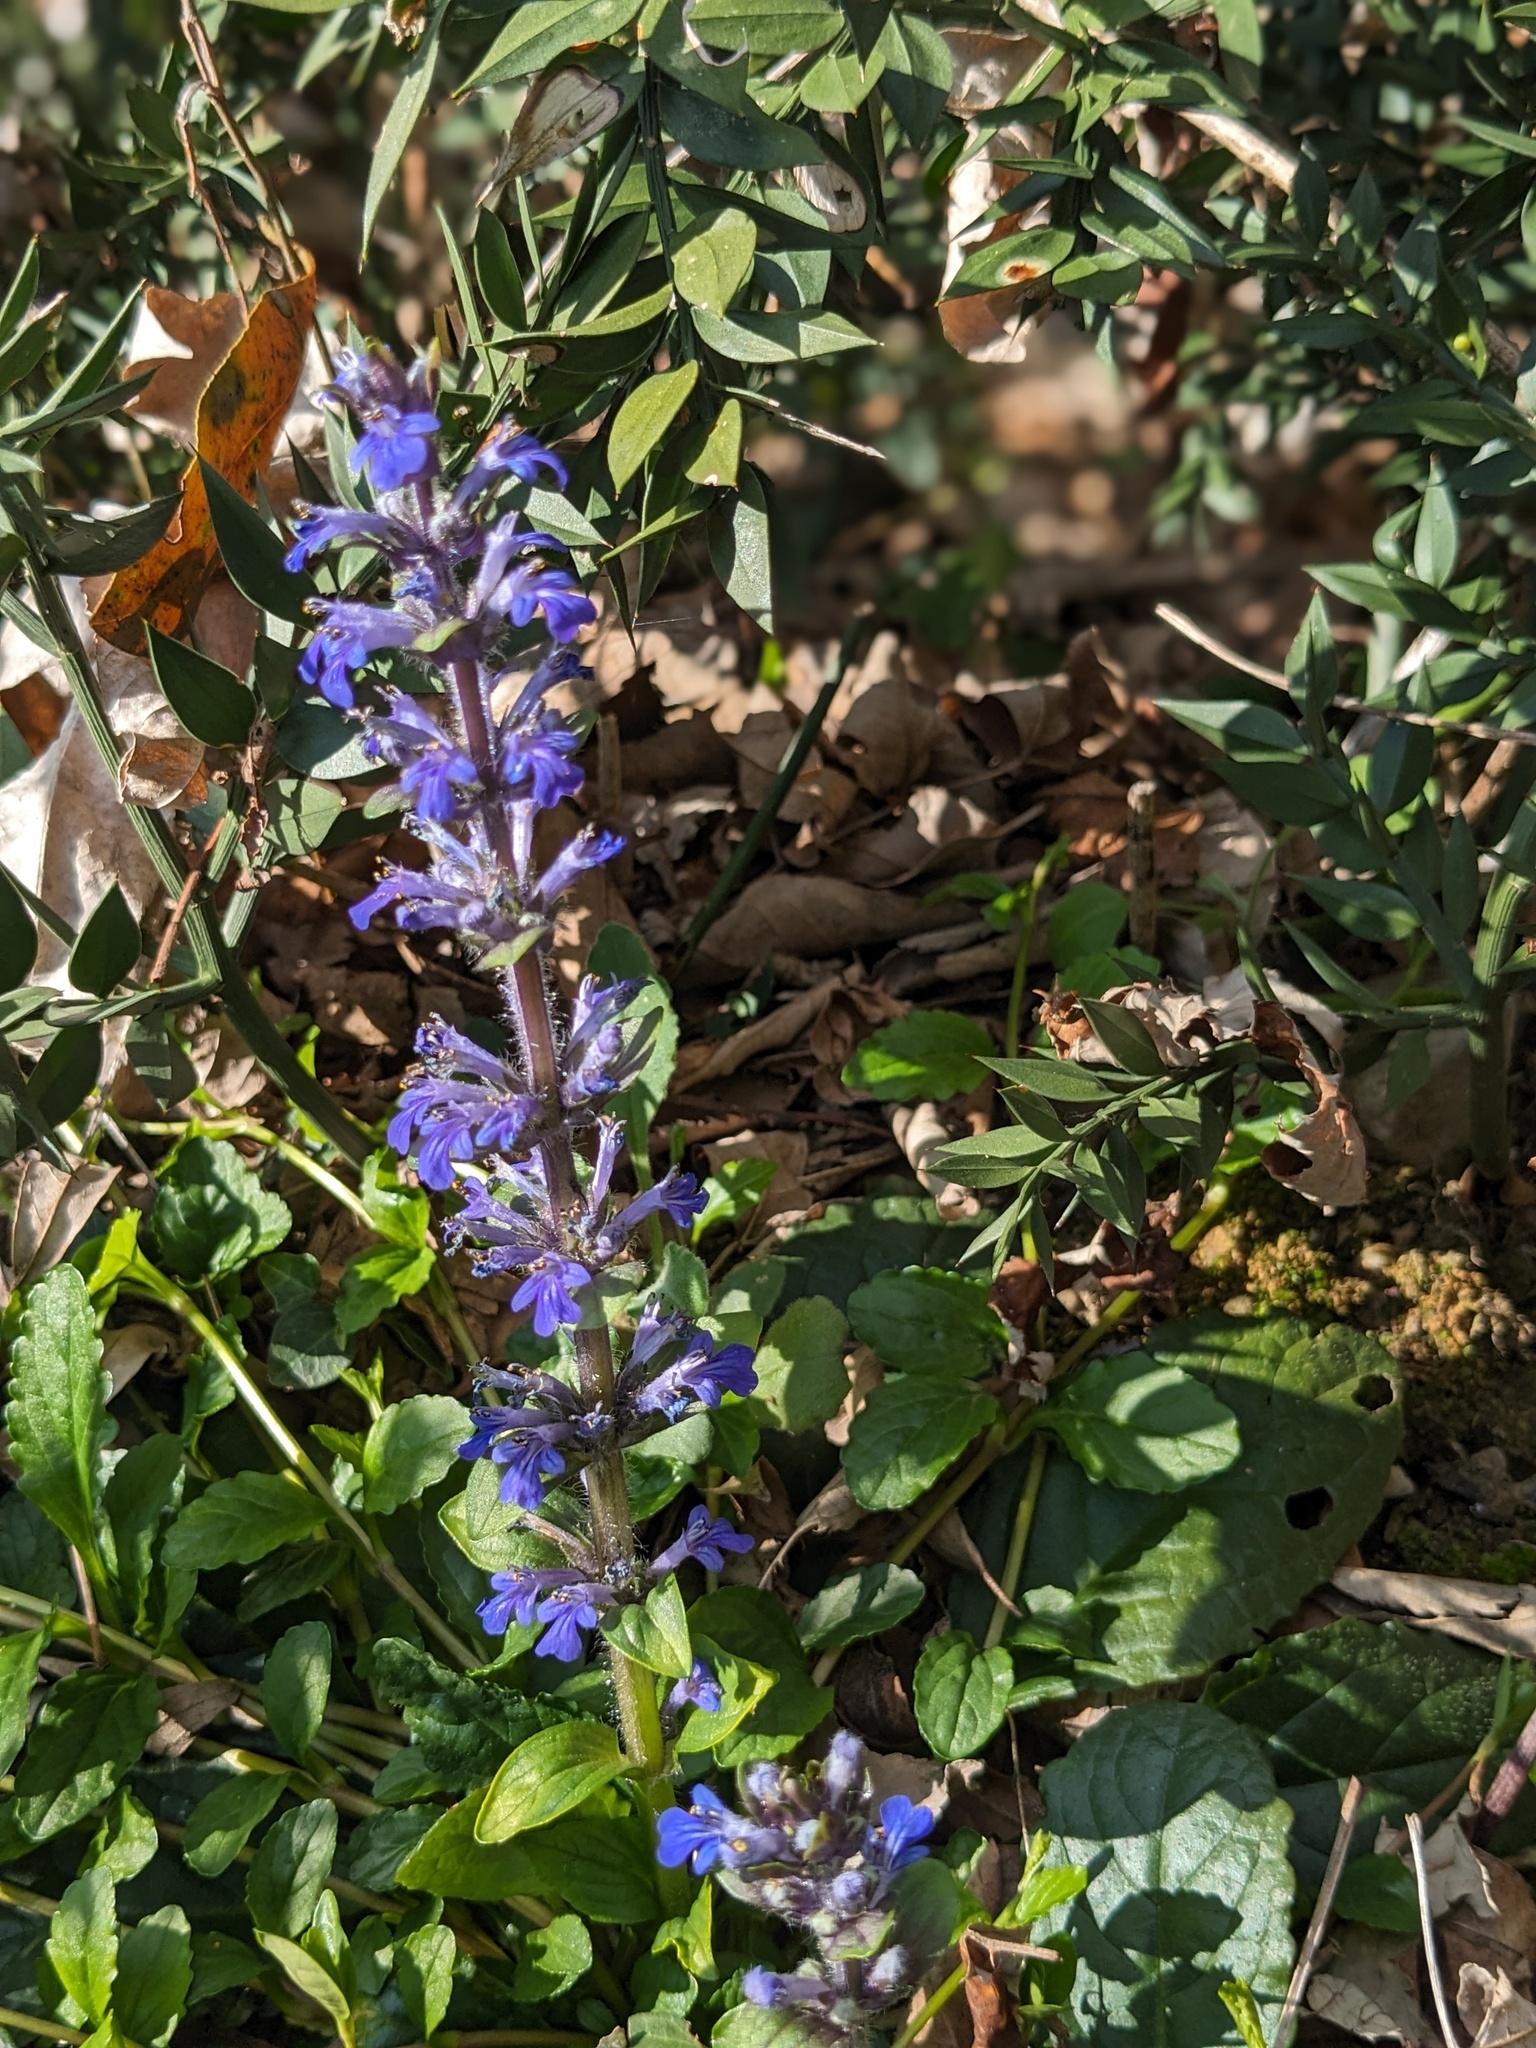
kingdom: Plantae
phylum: Tracheophyta
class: Magnoliopsida
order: Lamiales
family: Lamiaceae
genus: Ajuga
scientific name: Ajuga reptans
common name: Bugle
